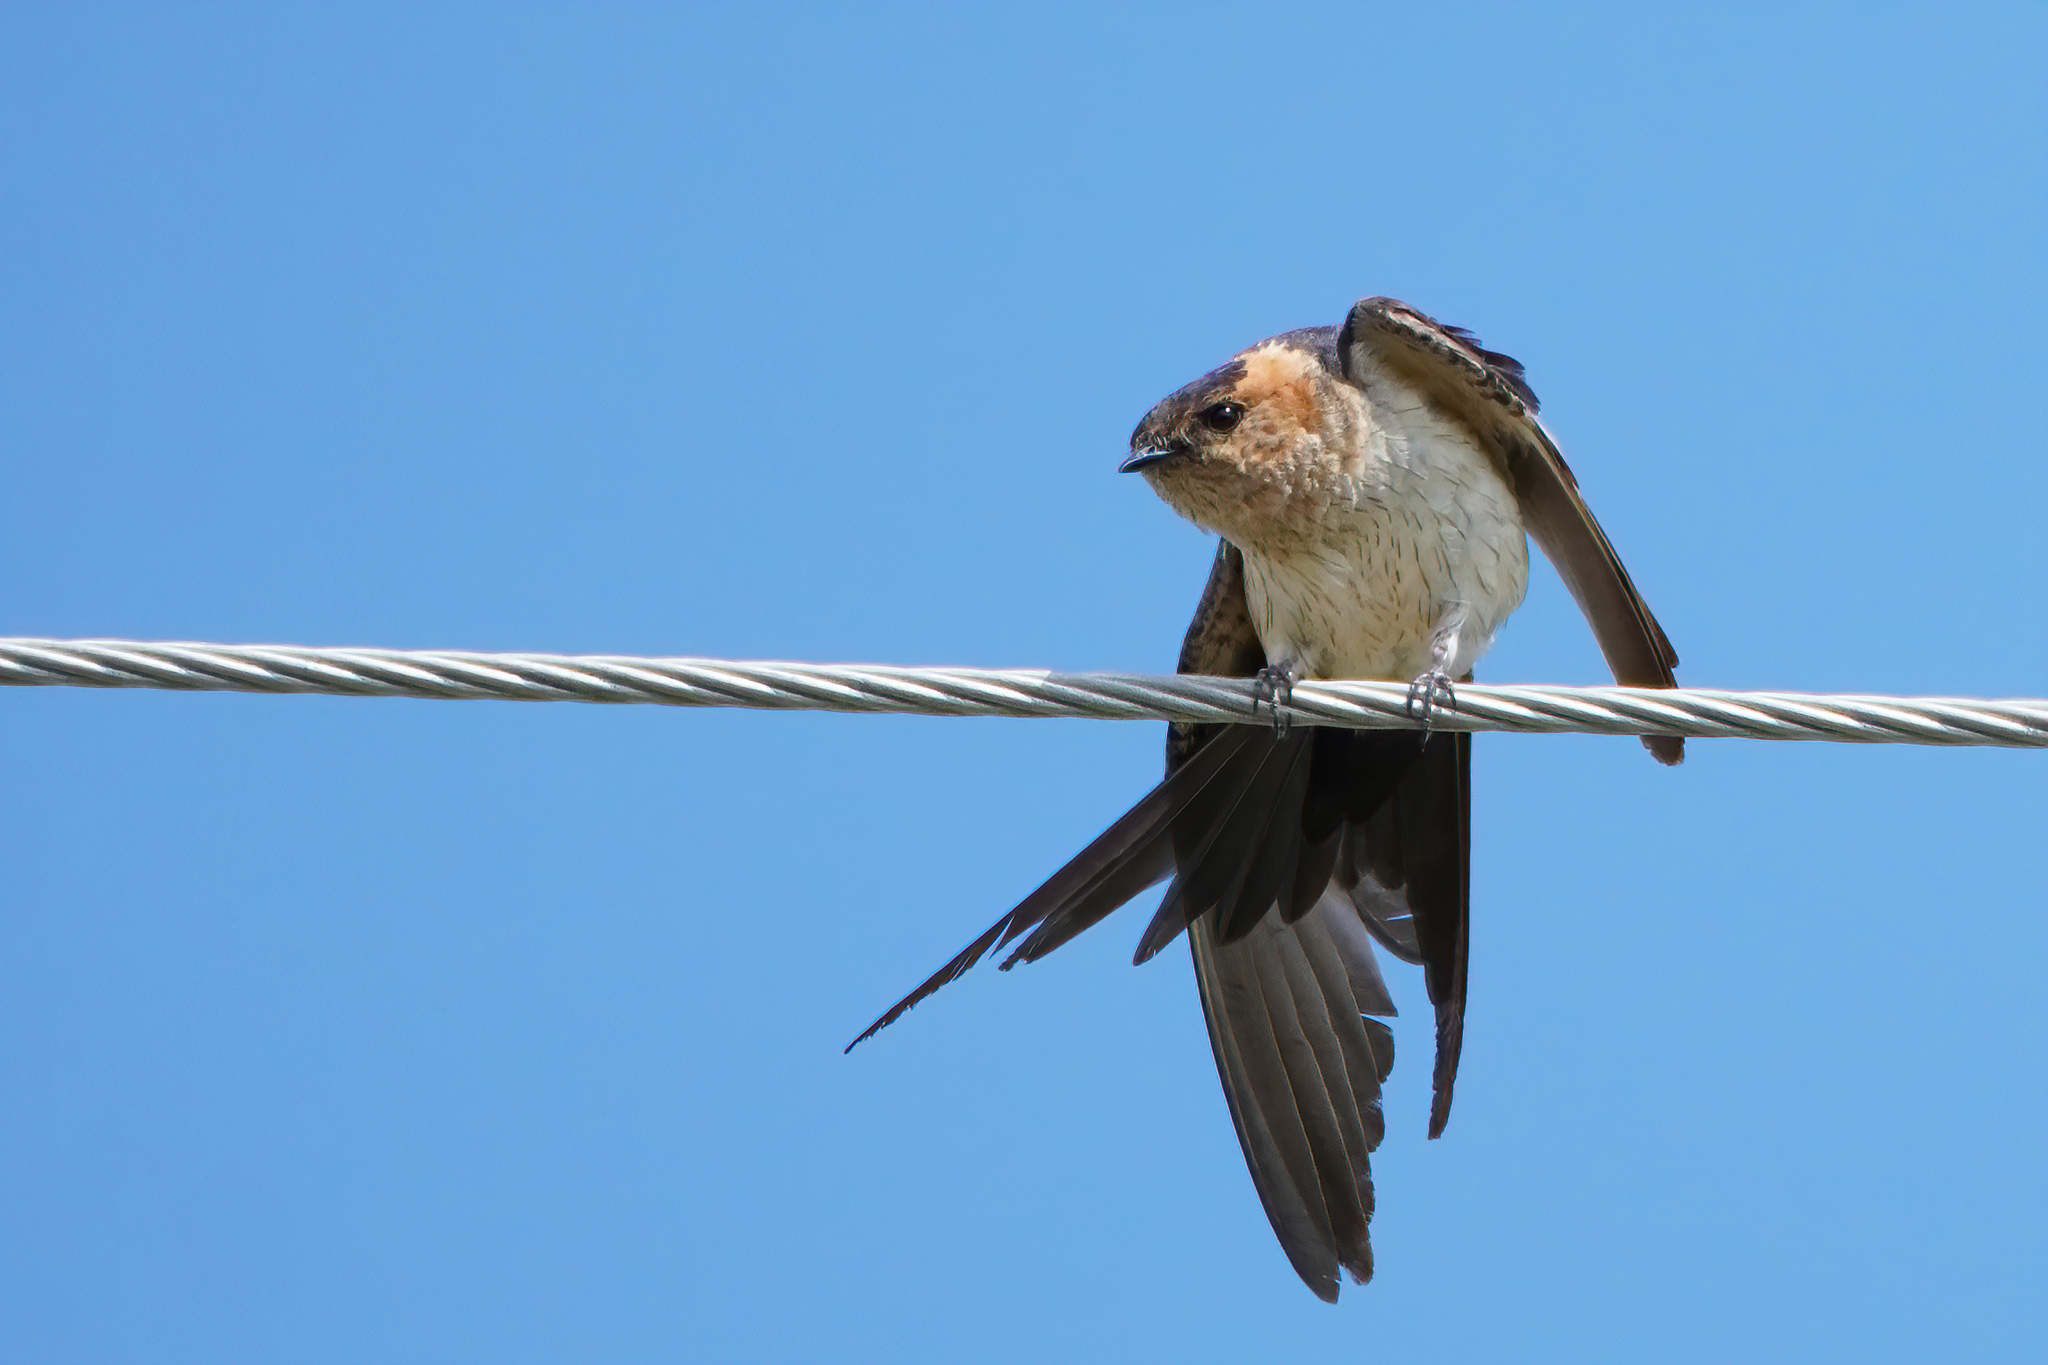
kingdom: Animalia
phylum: Chordata
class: Aves
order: Passeriformes
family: Hirundinidae
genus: Cecropis
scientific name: Cecropis daurica
